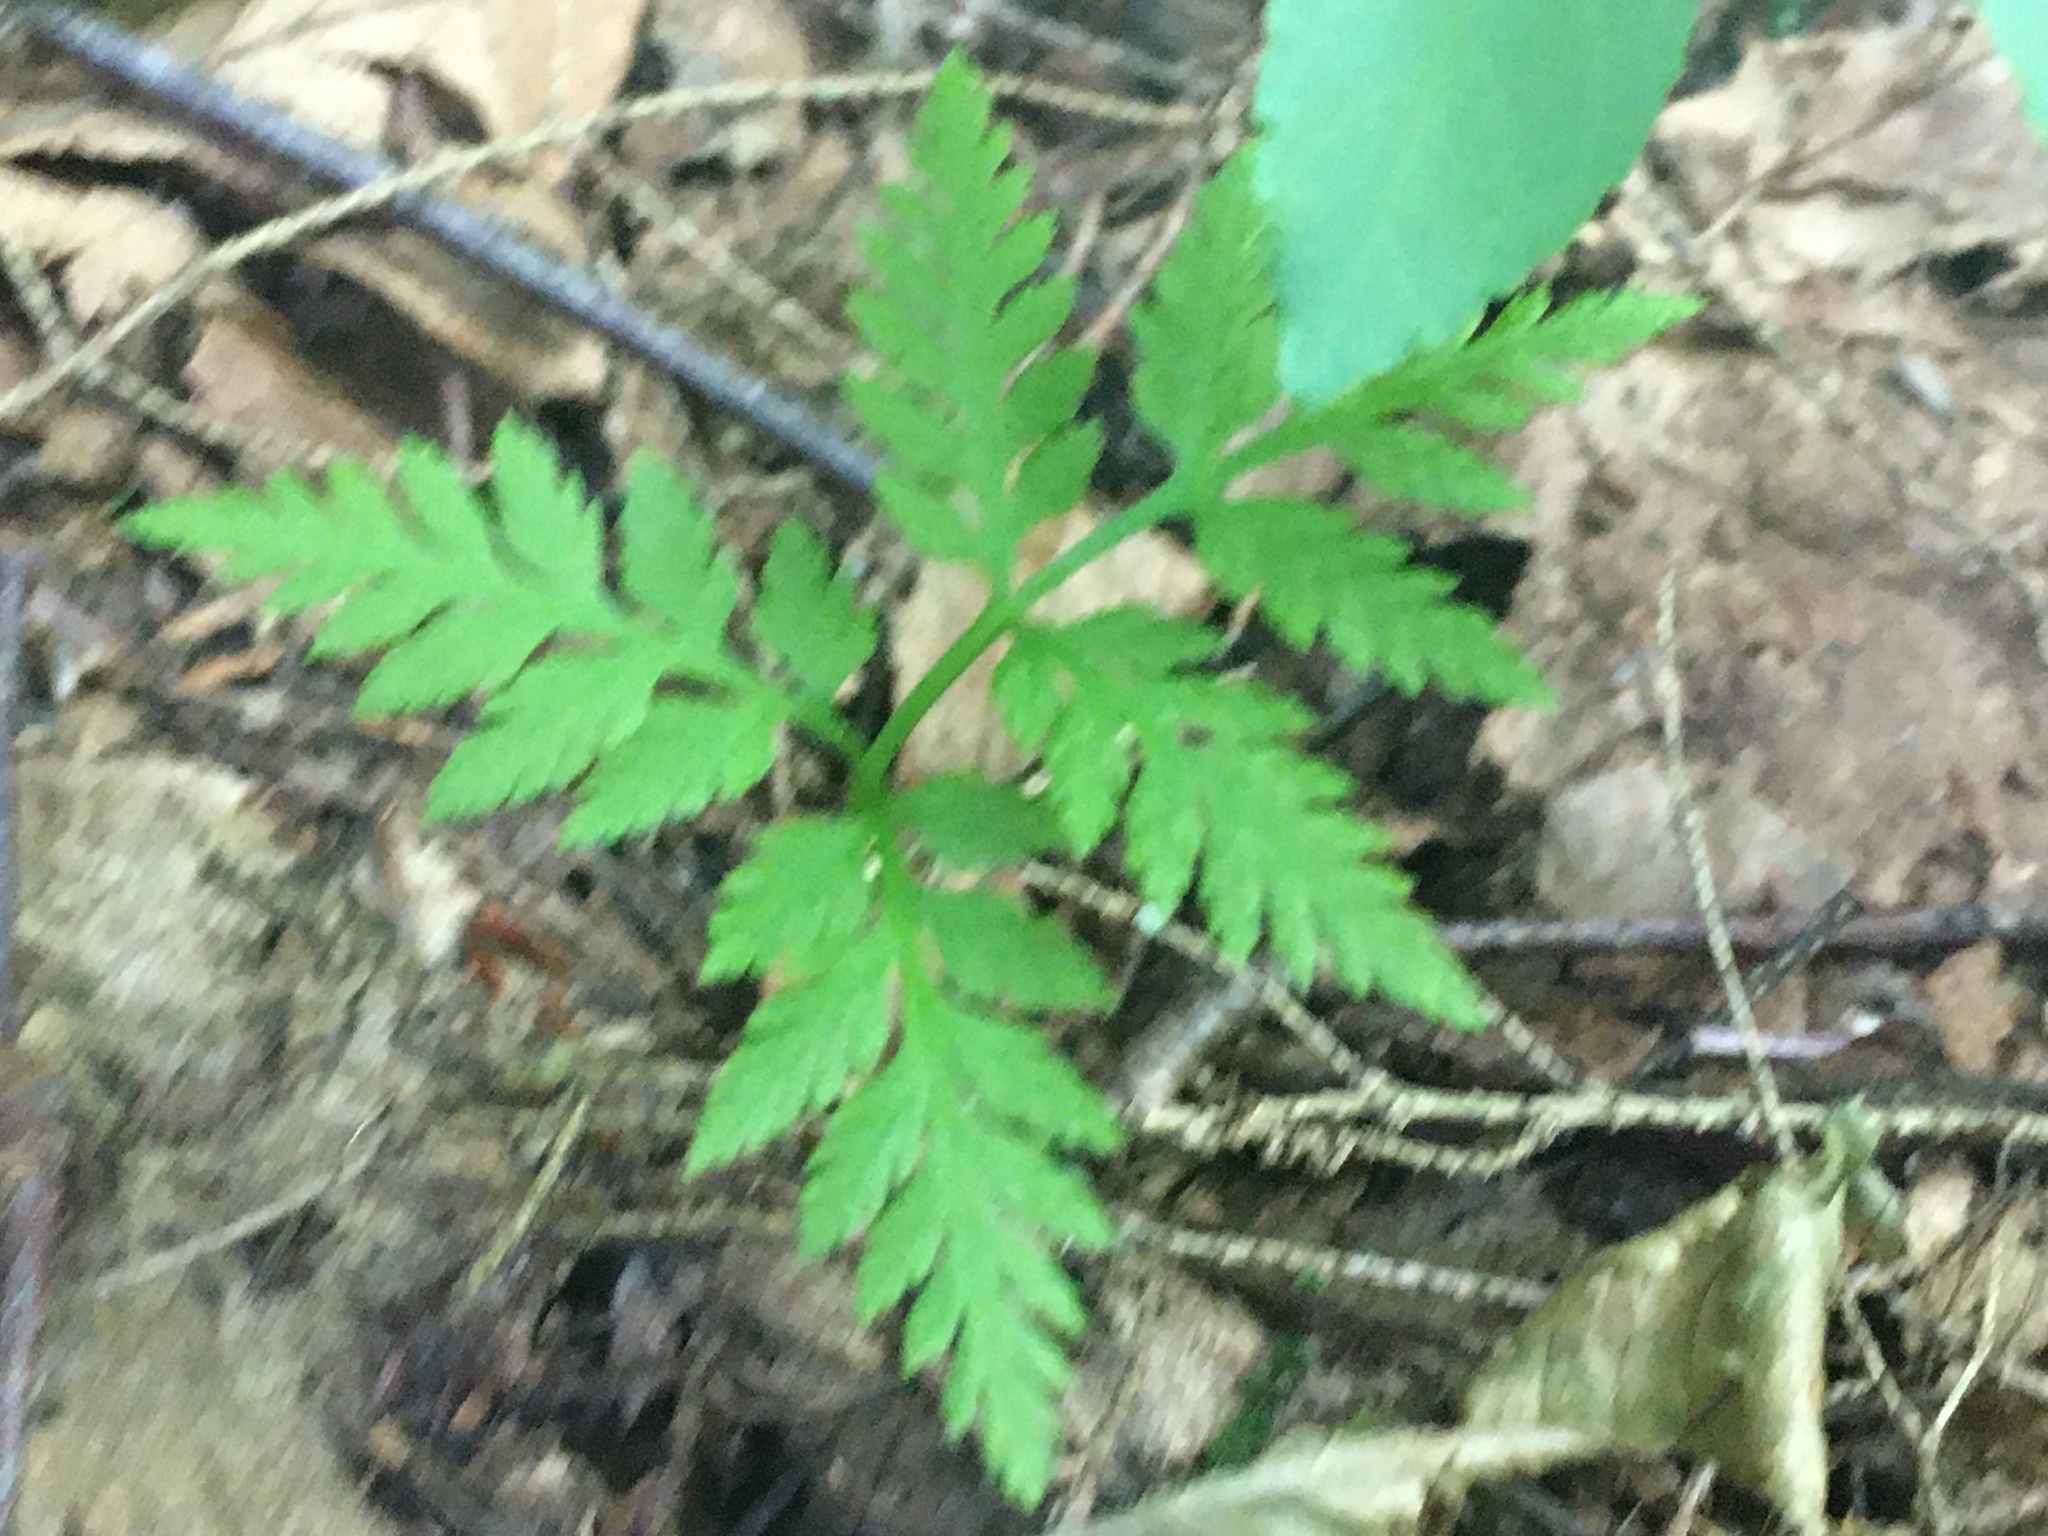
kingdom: Plantae
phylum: Tracheophyta
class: Polypodiopsida
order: Ophioglossales
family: Ophioglossaceae
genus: Botrypus
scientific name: Botrypus virginianus
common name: Common grapefern
